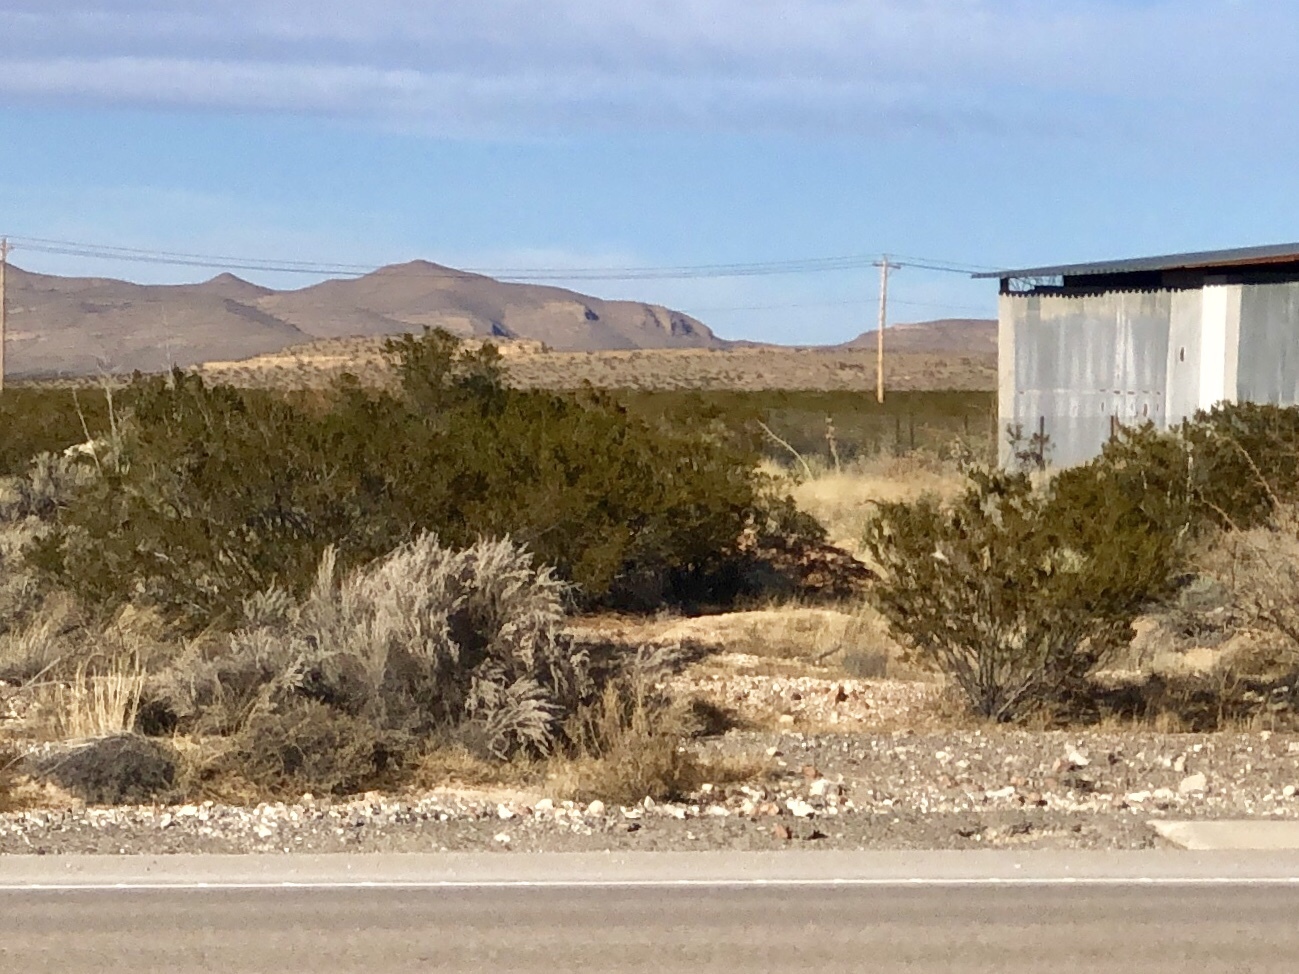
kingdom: Plantae
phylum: Tracheophyta
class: Magnoliopsida
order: Zygophyllales
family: Zygophyllaceae
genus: Larrea
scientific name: Larrea tridentata
